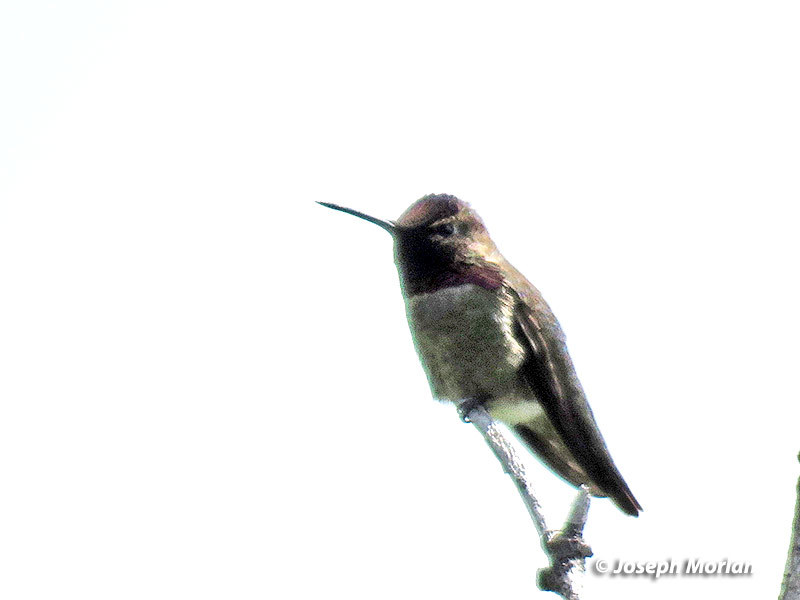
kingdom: Animalia
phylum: Chordata
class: Aves
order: Apodiformes
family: Trochilidae
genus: Calypte
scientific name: Calypte anna
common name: Anna's hummingbird
